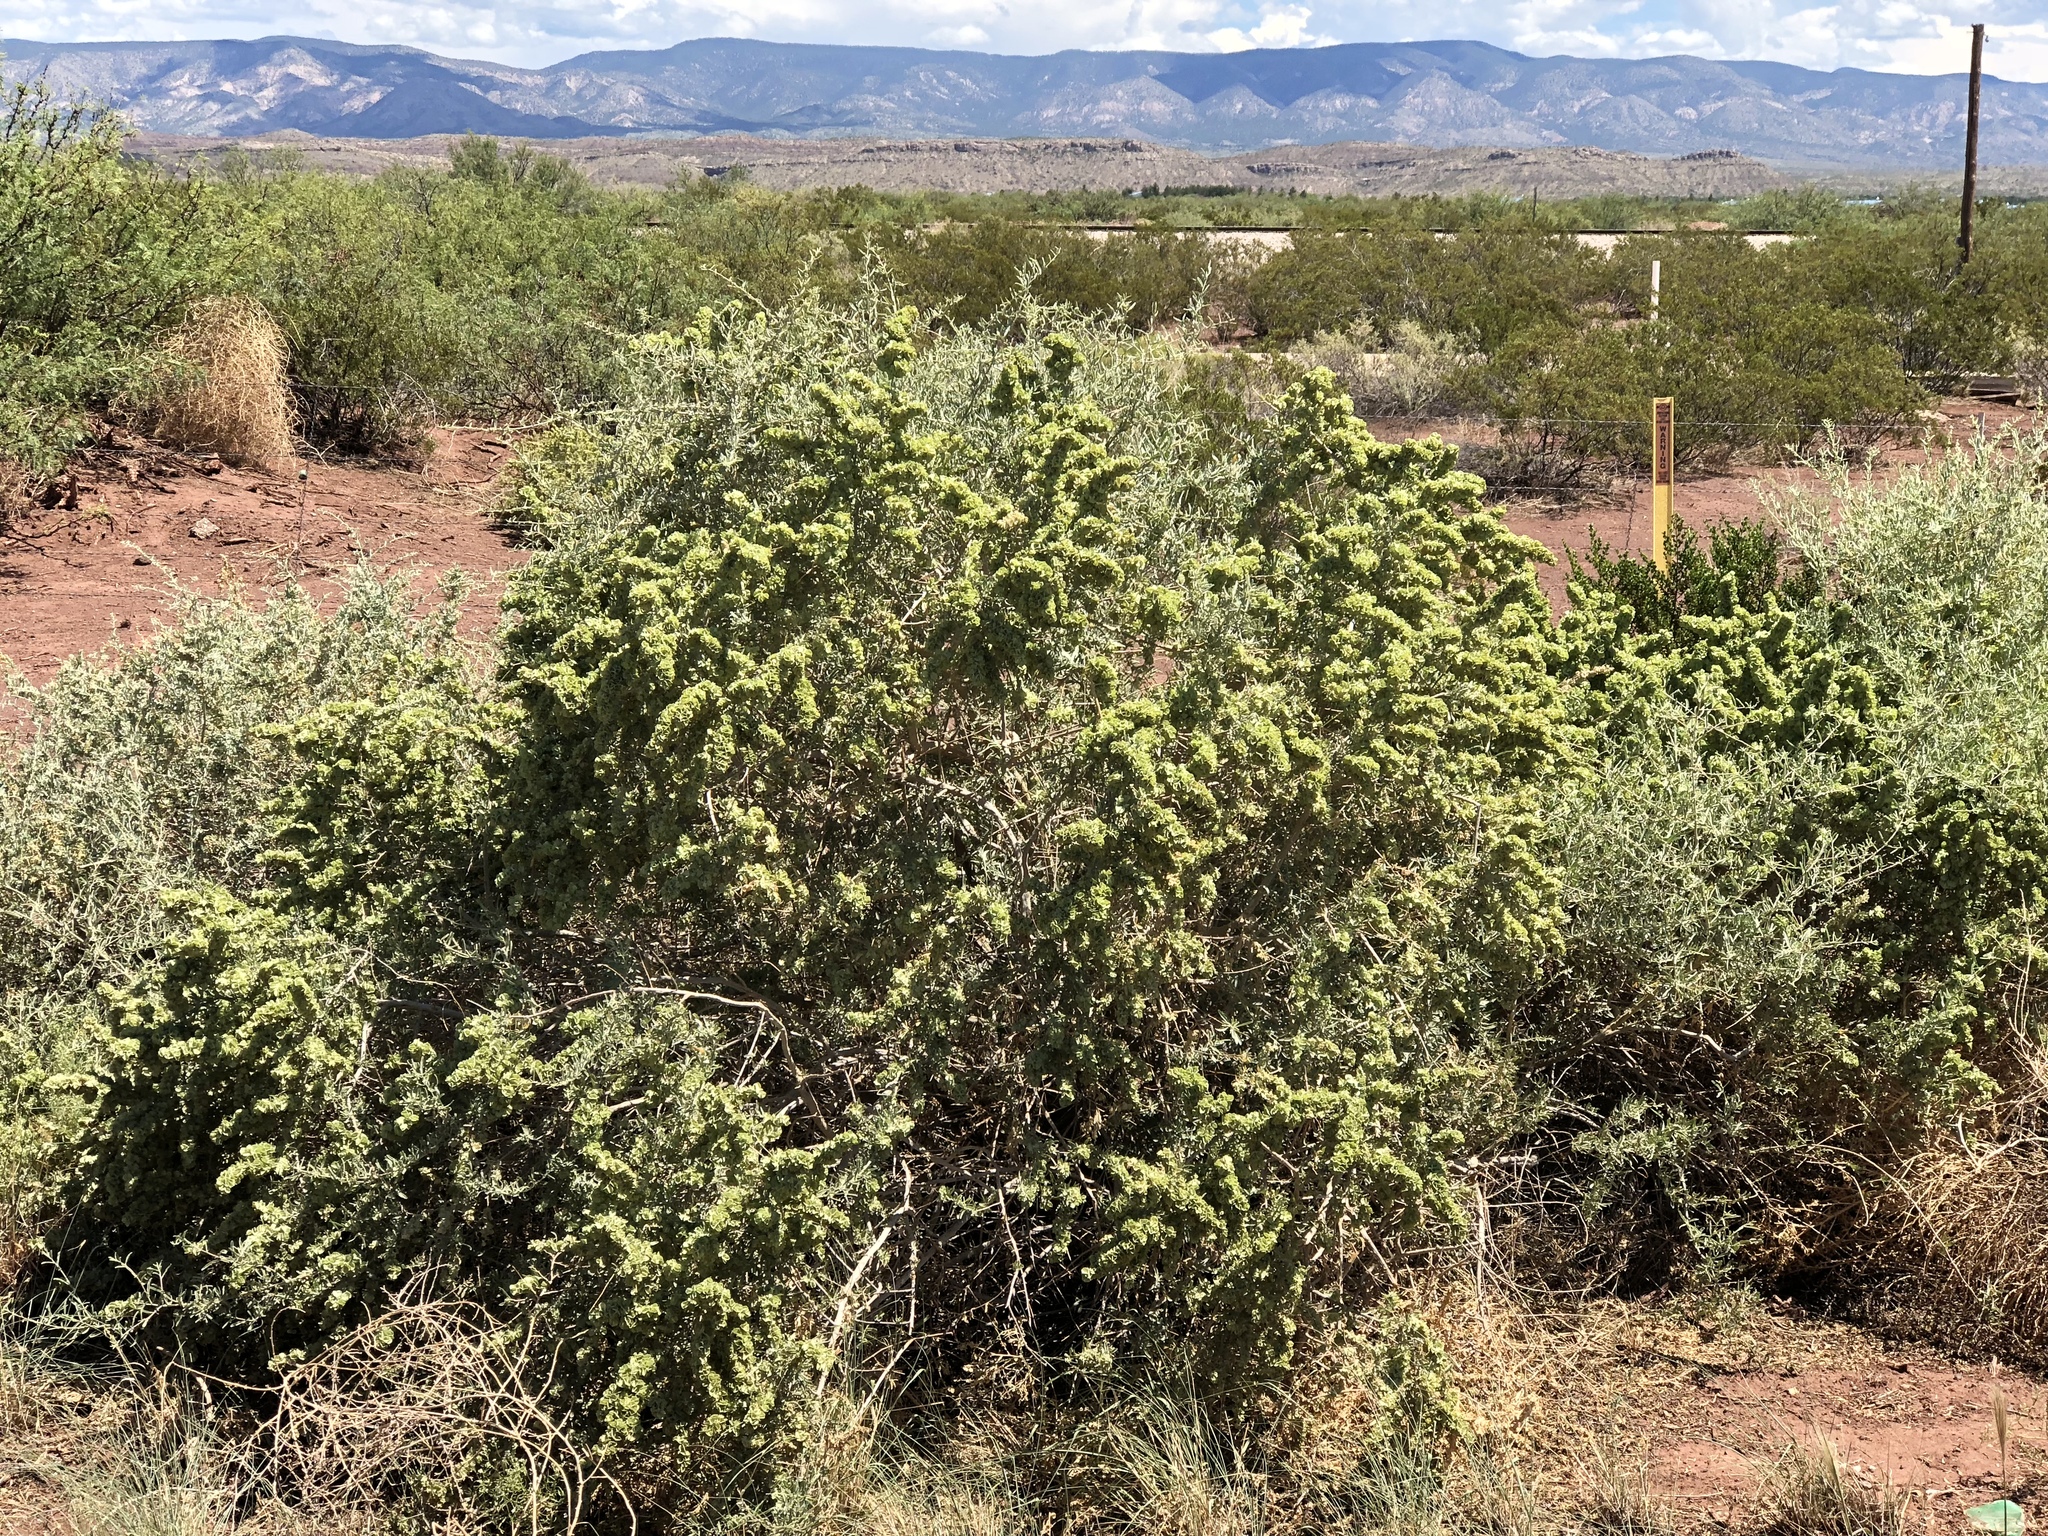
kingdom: Plantae
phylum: Tracheophyta
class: Magnoliopsida
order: Caryophyllales
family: Amaranthaceae
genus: Atriplex
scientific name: Atriplex canescens
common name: Four-wing saltbush
